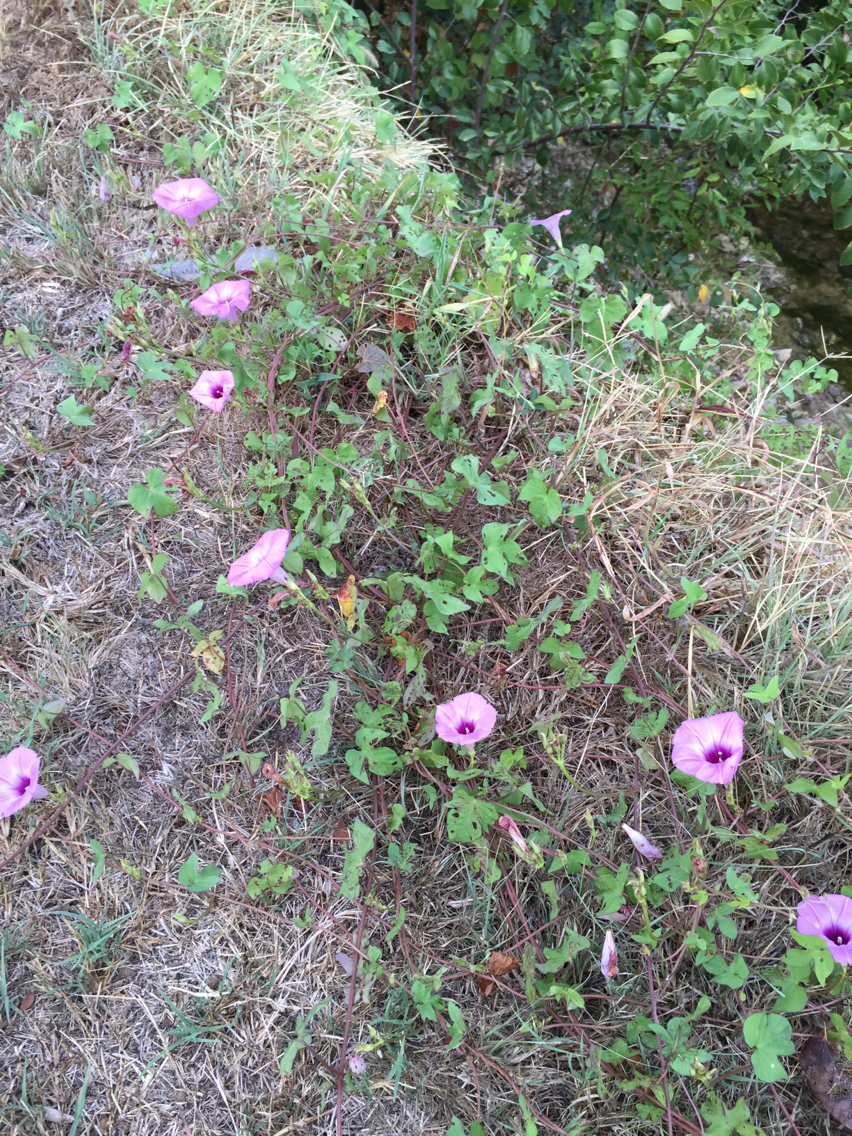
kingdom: Plantae
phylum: Tracheophyta
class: Magnoliopsida
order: Solanales
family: Convolvulaceae
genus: Ipomoea
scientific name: Ipomoea cordatotriloba
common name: Cotton morning glory
